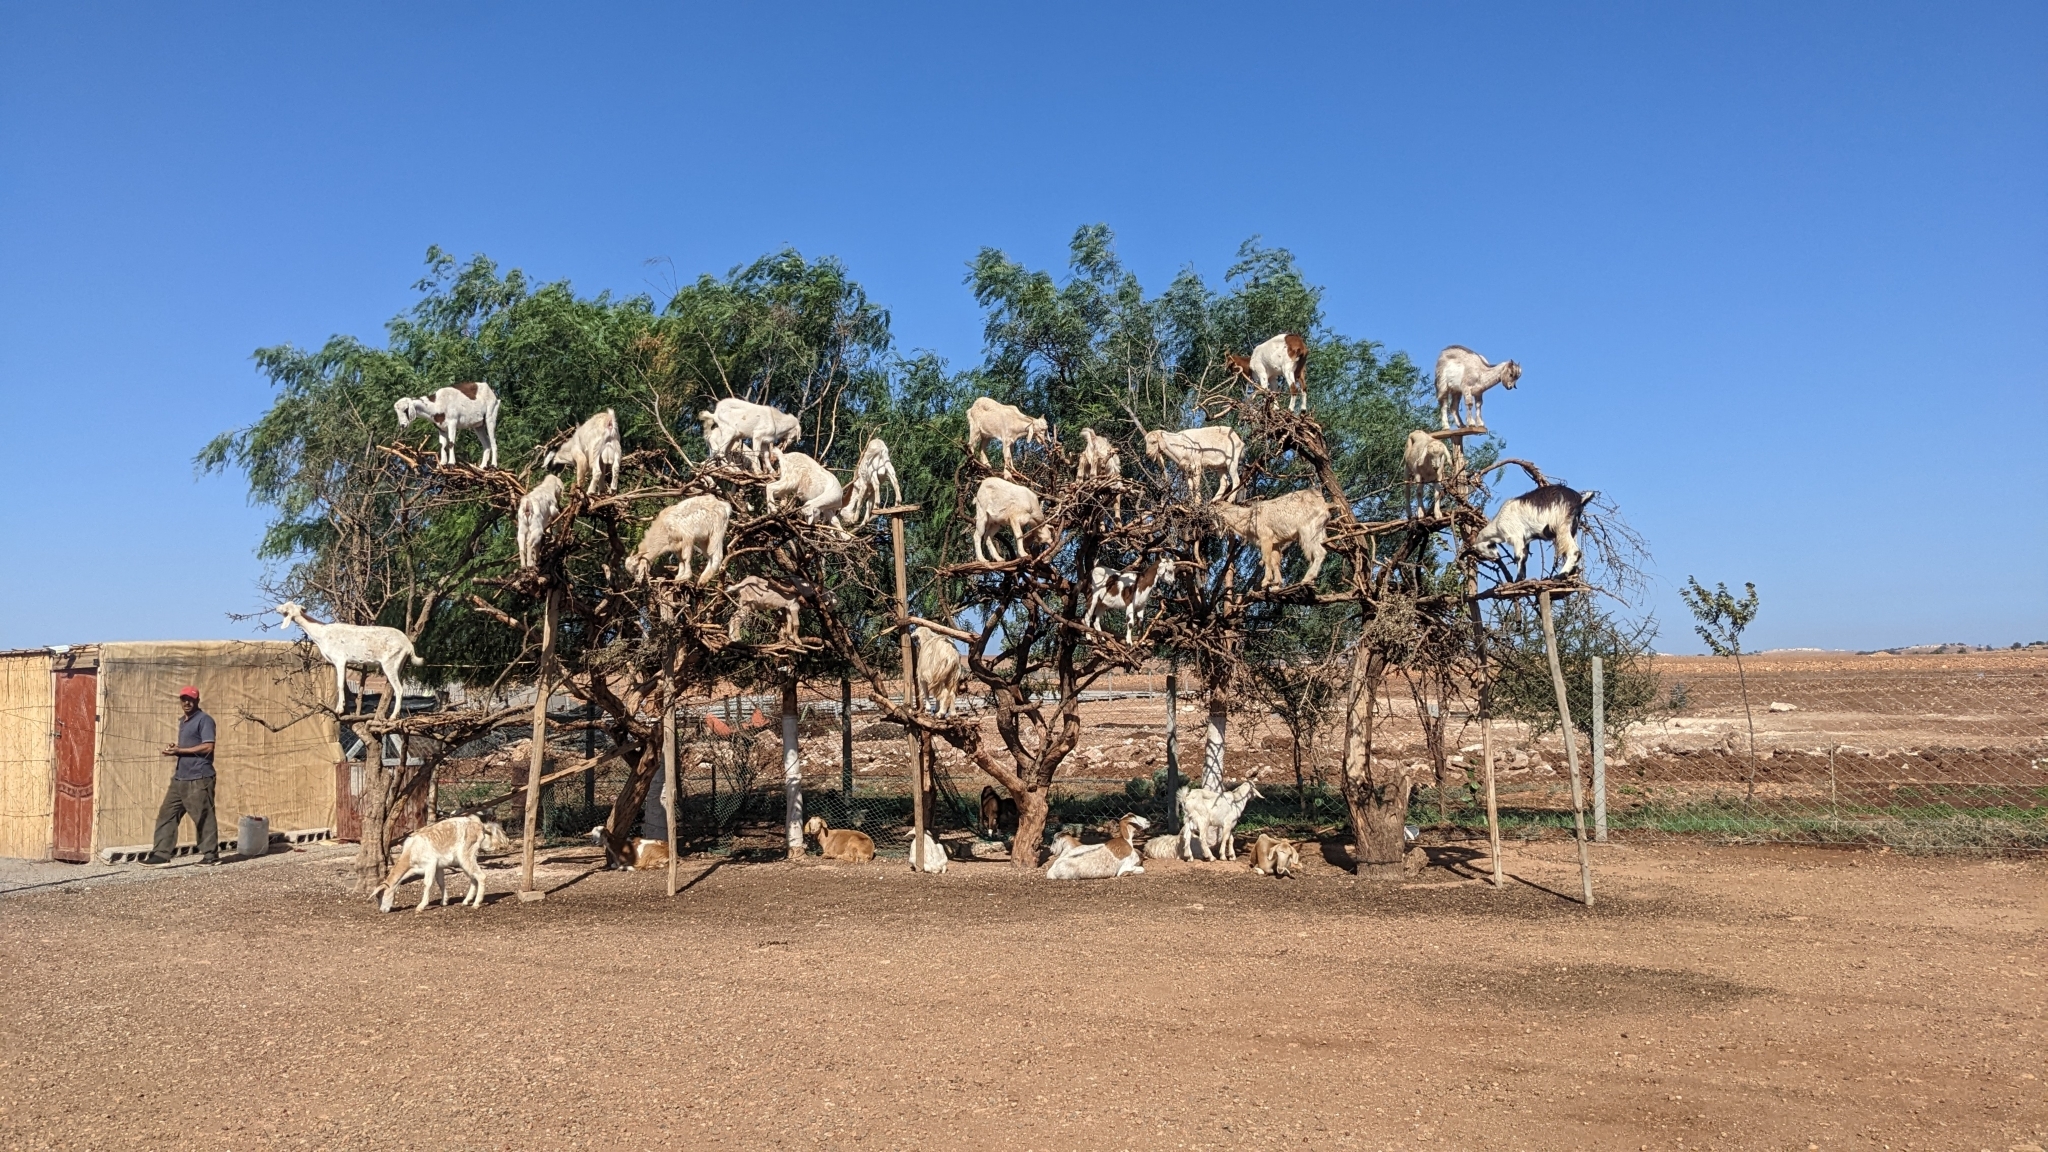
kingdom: Plantae
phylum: Tracheophyta
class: Magnoliopsida
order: Ericales
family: Sapotaceae
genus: Sideroxylon
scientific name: Sideroxylon spinosum
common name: Argan
